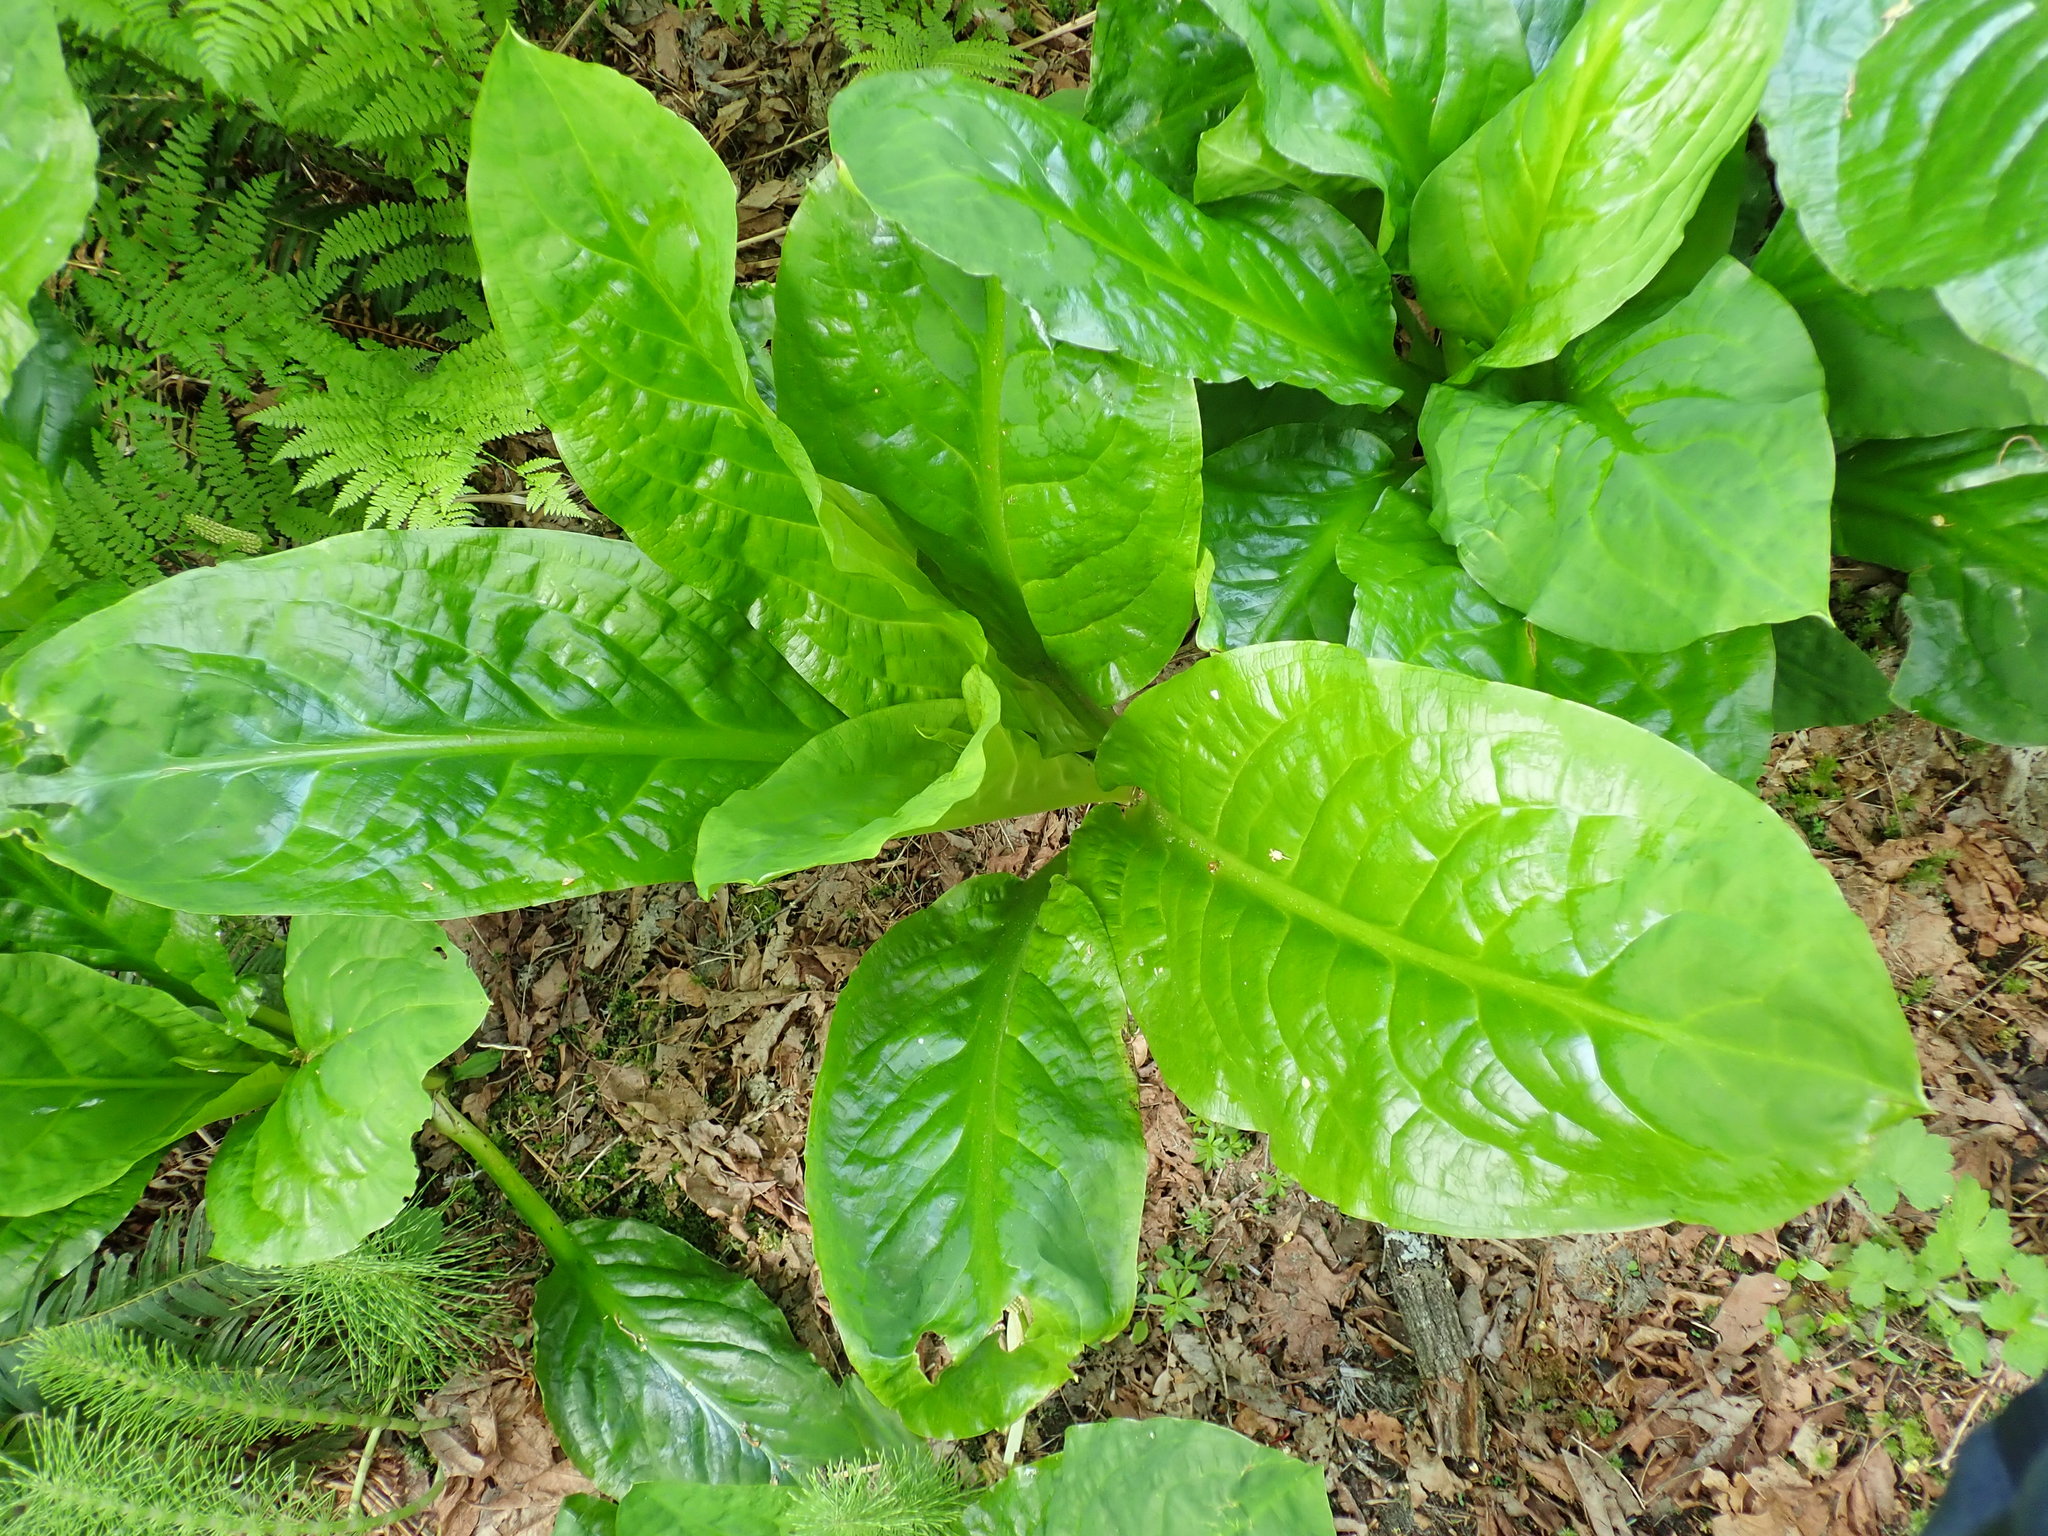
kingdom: Plantae
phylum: Tracheophyta
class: Liliopsida
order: Alismatales
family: Araceae
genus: Lysichiton
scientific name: Lysichiton americanus
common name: American skunk cabbage
